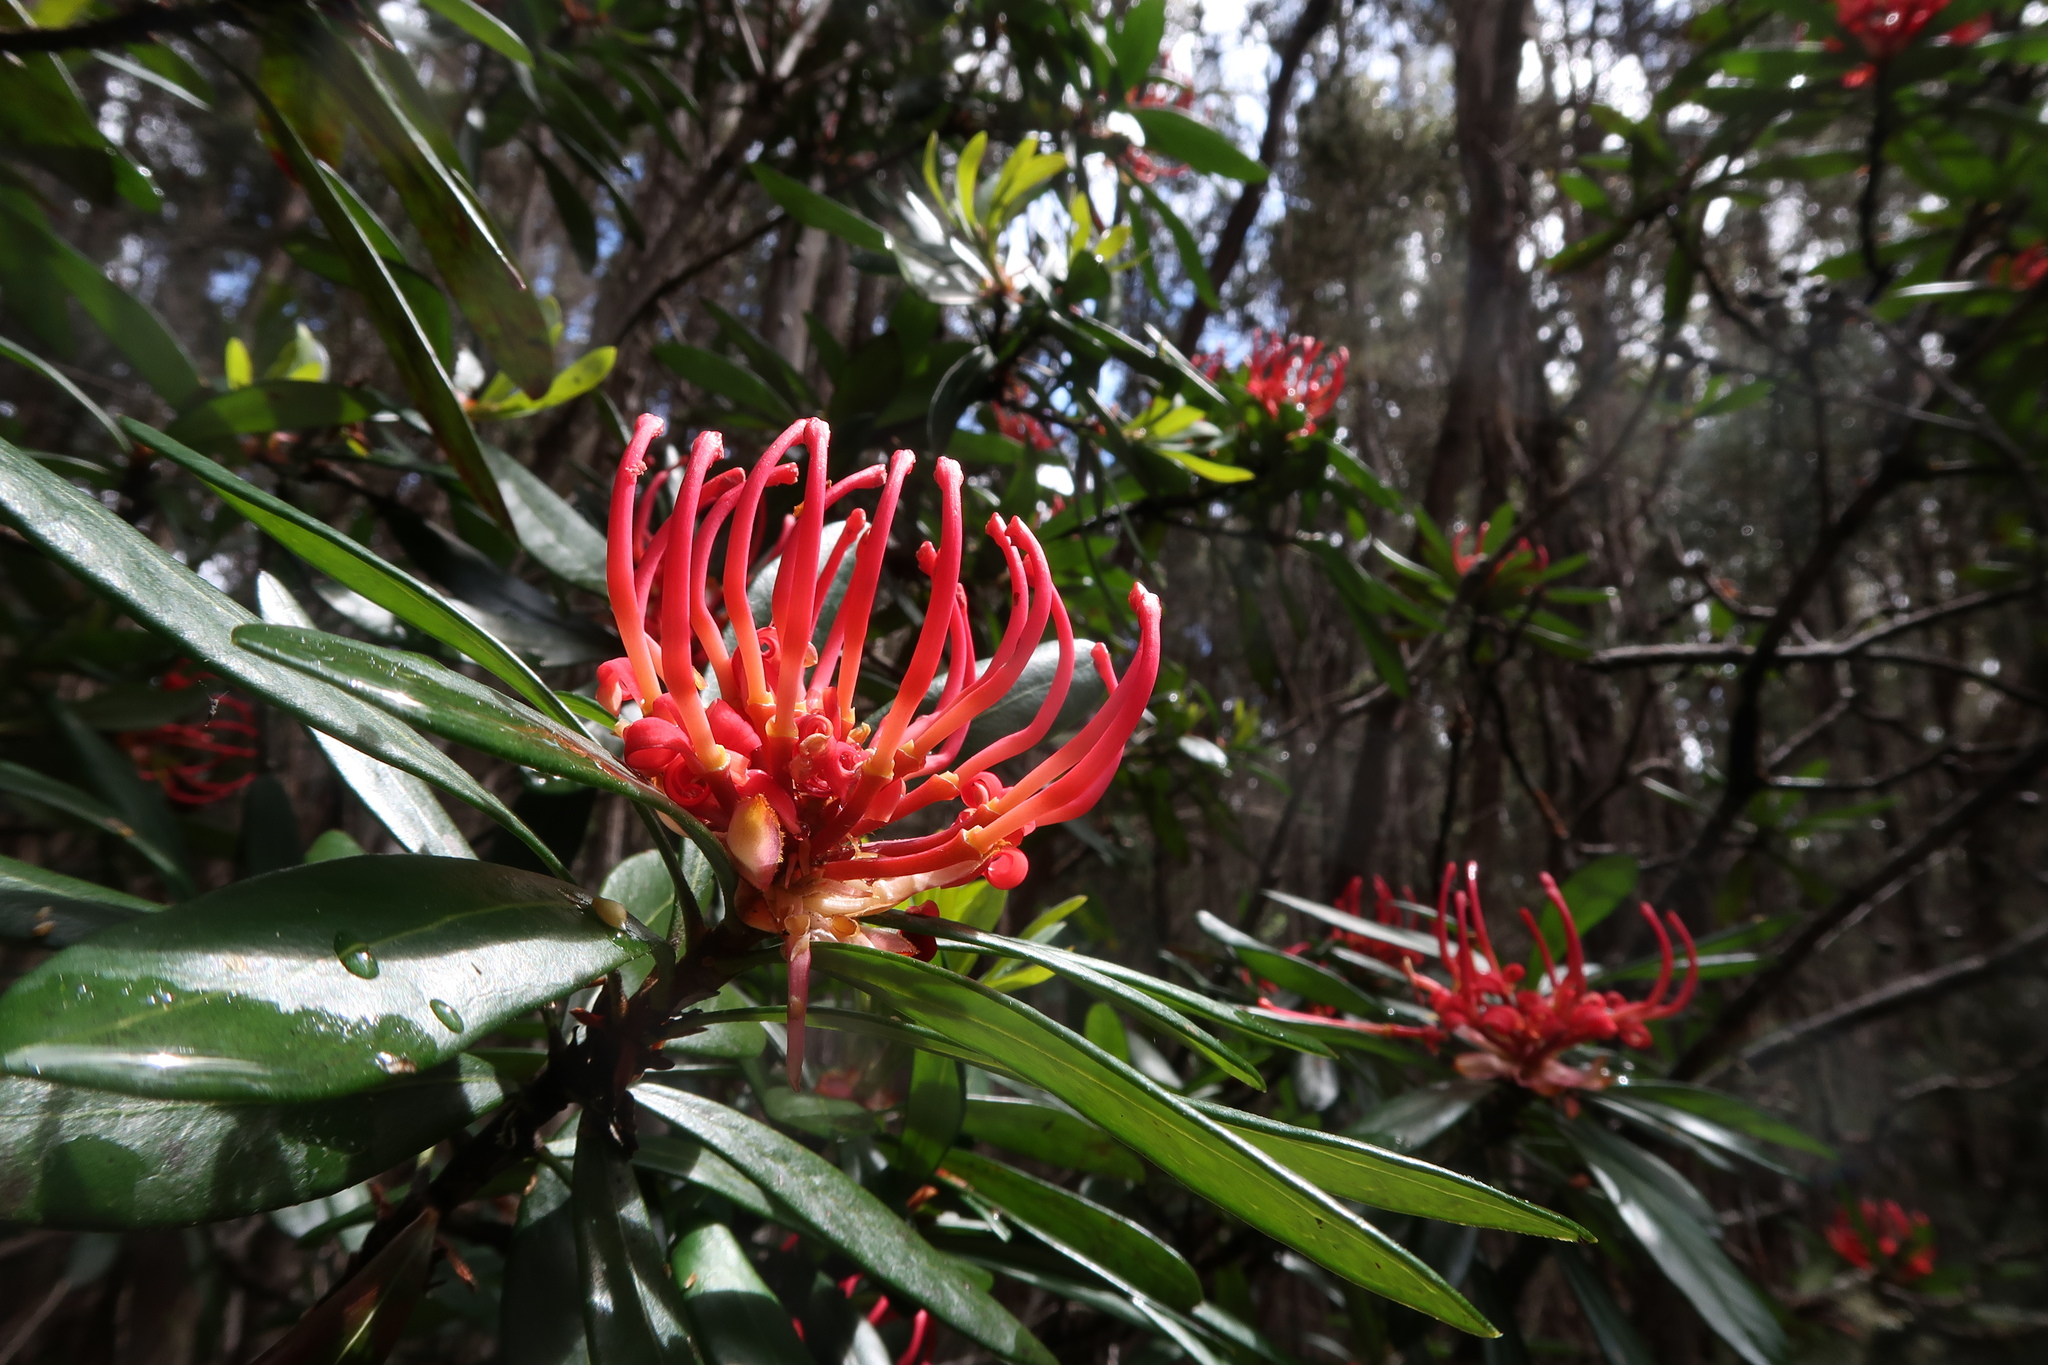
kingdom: Plantae
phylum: Tracheophyta
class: Magnoliopsida
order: Proteales
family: Proteaceae
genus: Telopea
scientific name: Telopea truncata
